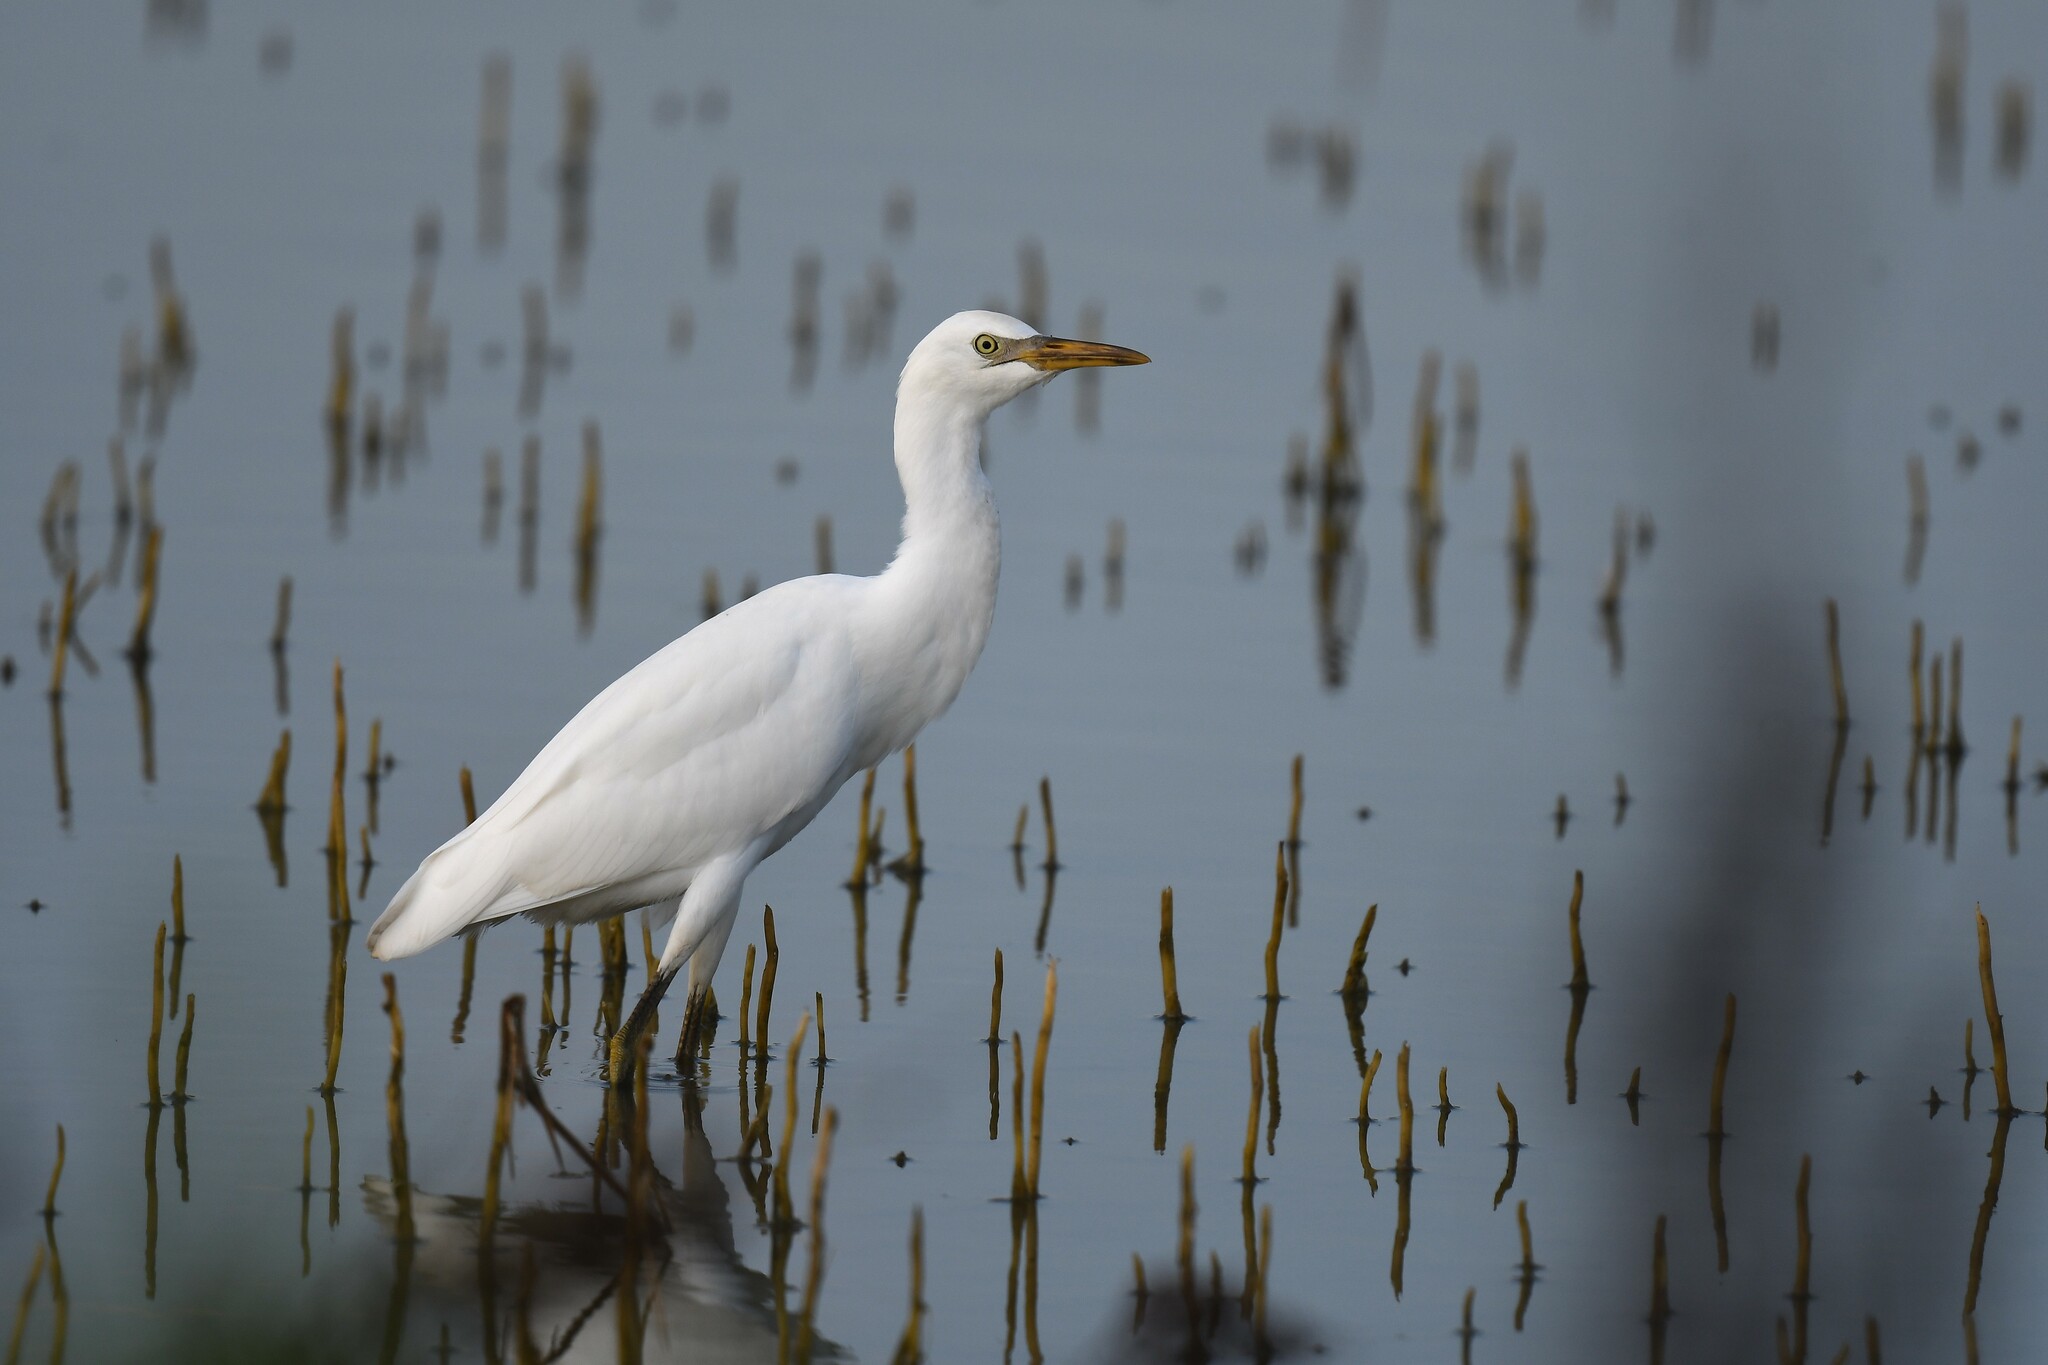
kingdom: Animalia
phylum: Chordata
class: Aves
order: Pelecaniformes
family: Ardeidae
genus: Bubulcus
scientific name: Bubulcus ibis
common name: Cattle egret
